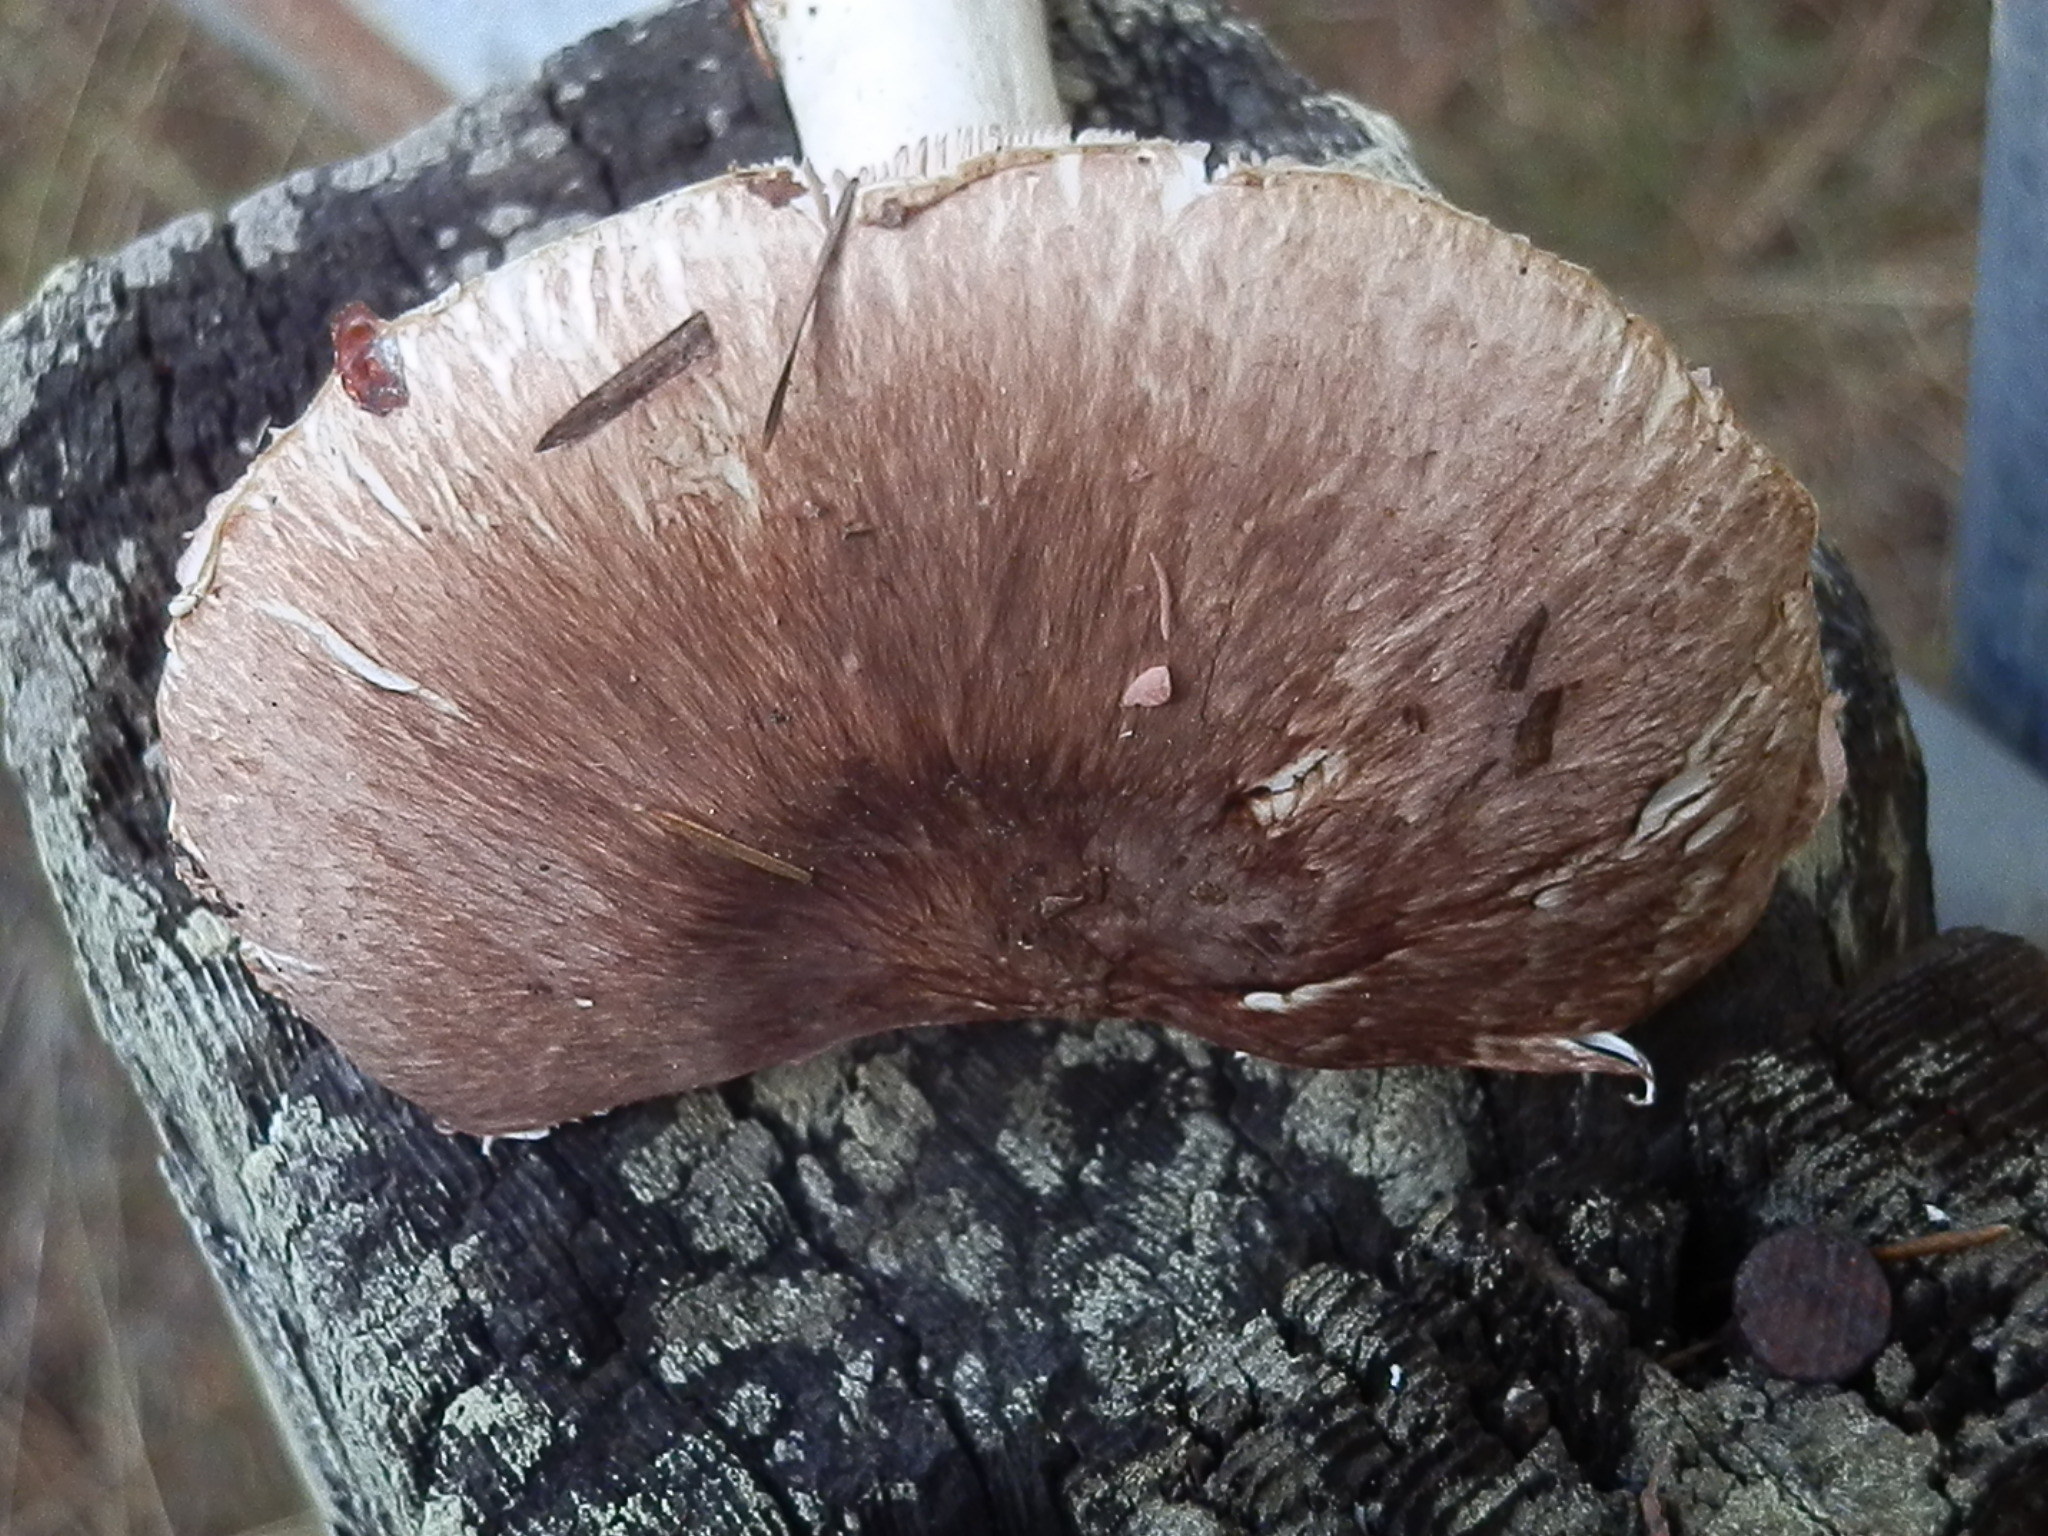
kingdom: Fungi
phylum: Basidiomycota
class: Agaricomycetes
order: Agaricales
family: Agaricaceae
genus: Agaricus
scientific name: Agaricus subrutilescens
